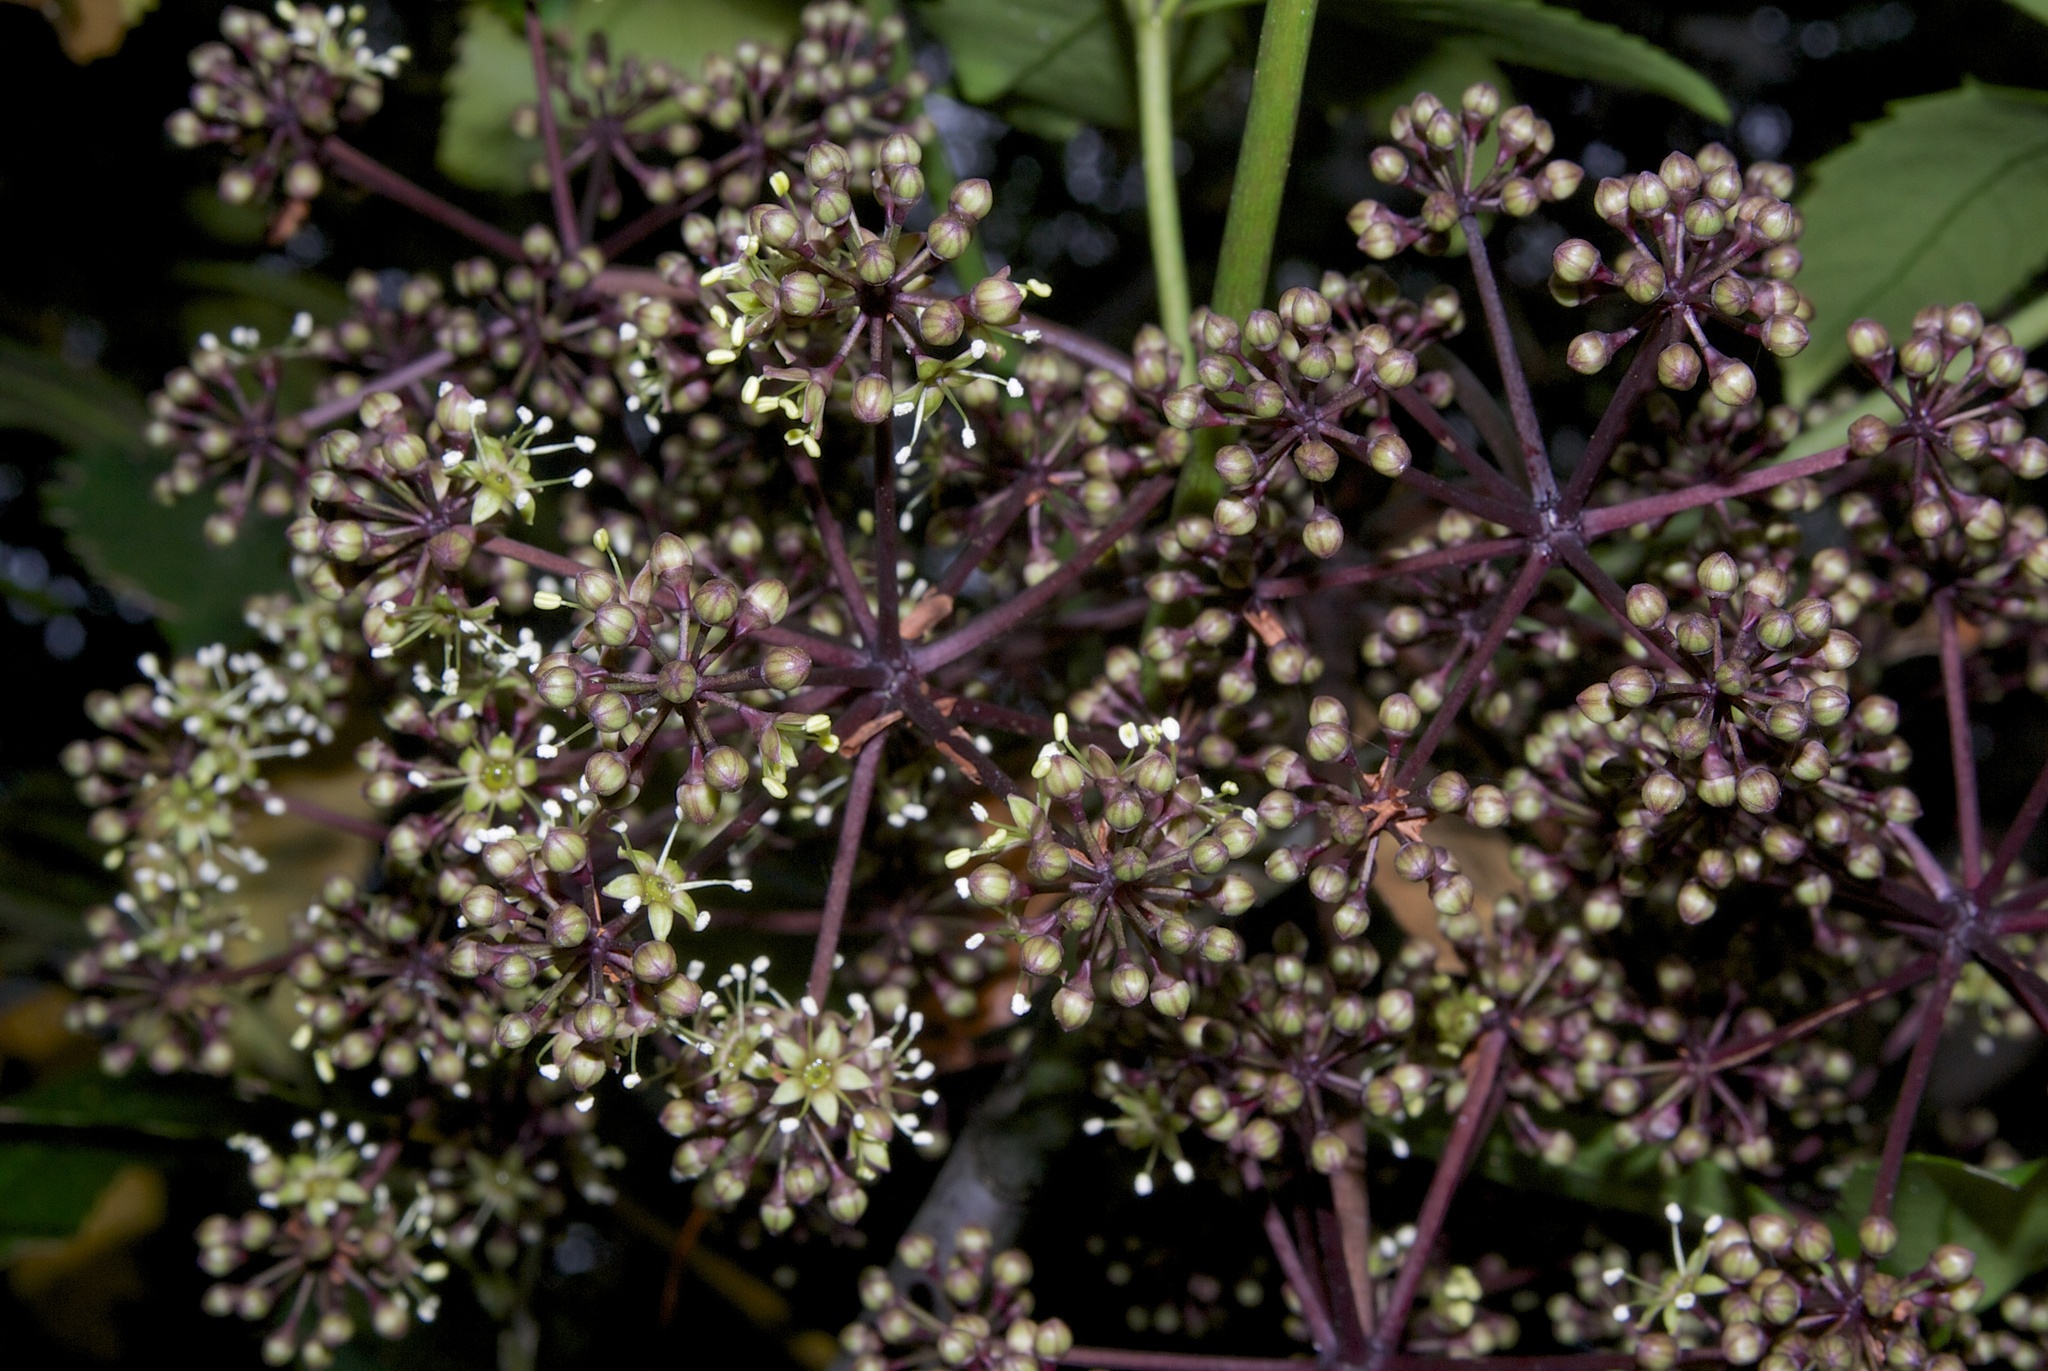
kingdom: Plantae
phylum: Tracheophyta
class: Magnoliopsida
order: Apiales
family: Araliaceae
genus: Neopanax
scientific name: Neopanax arboreus
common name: Five-fingers
